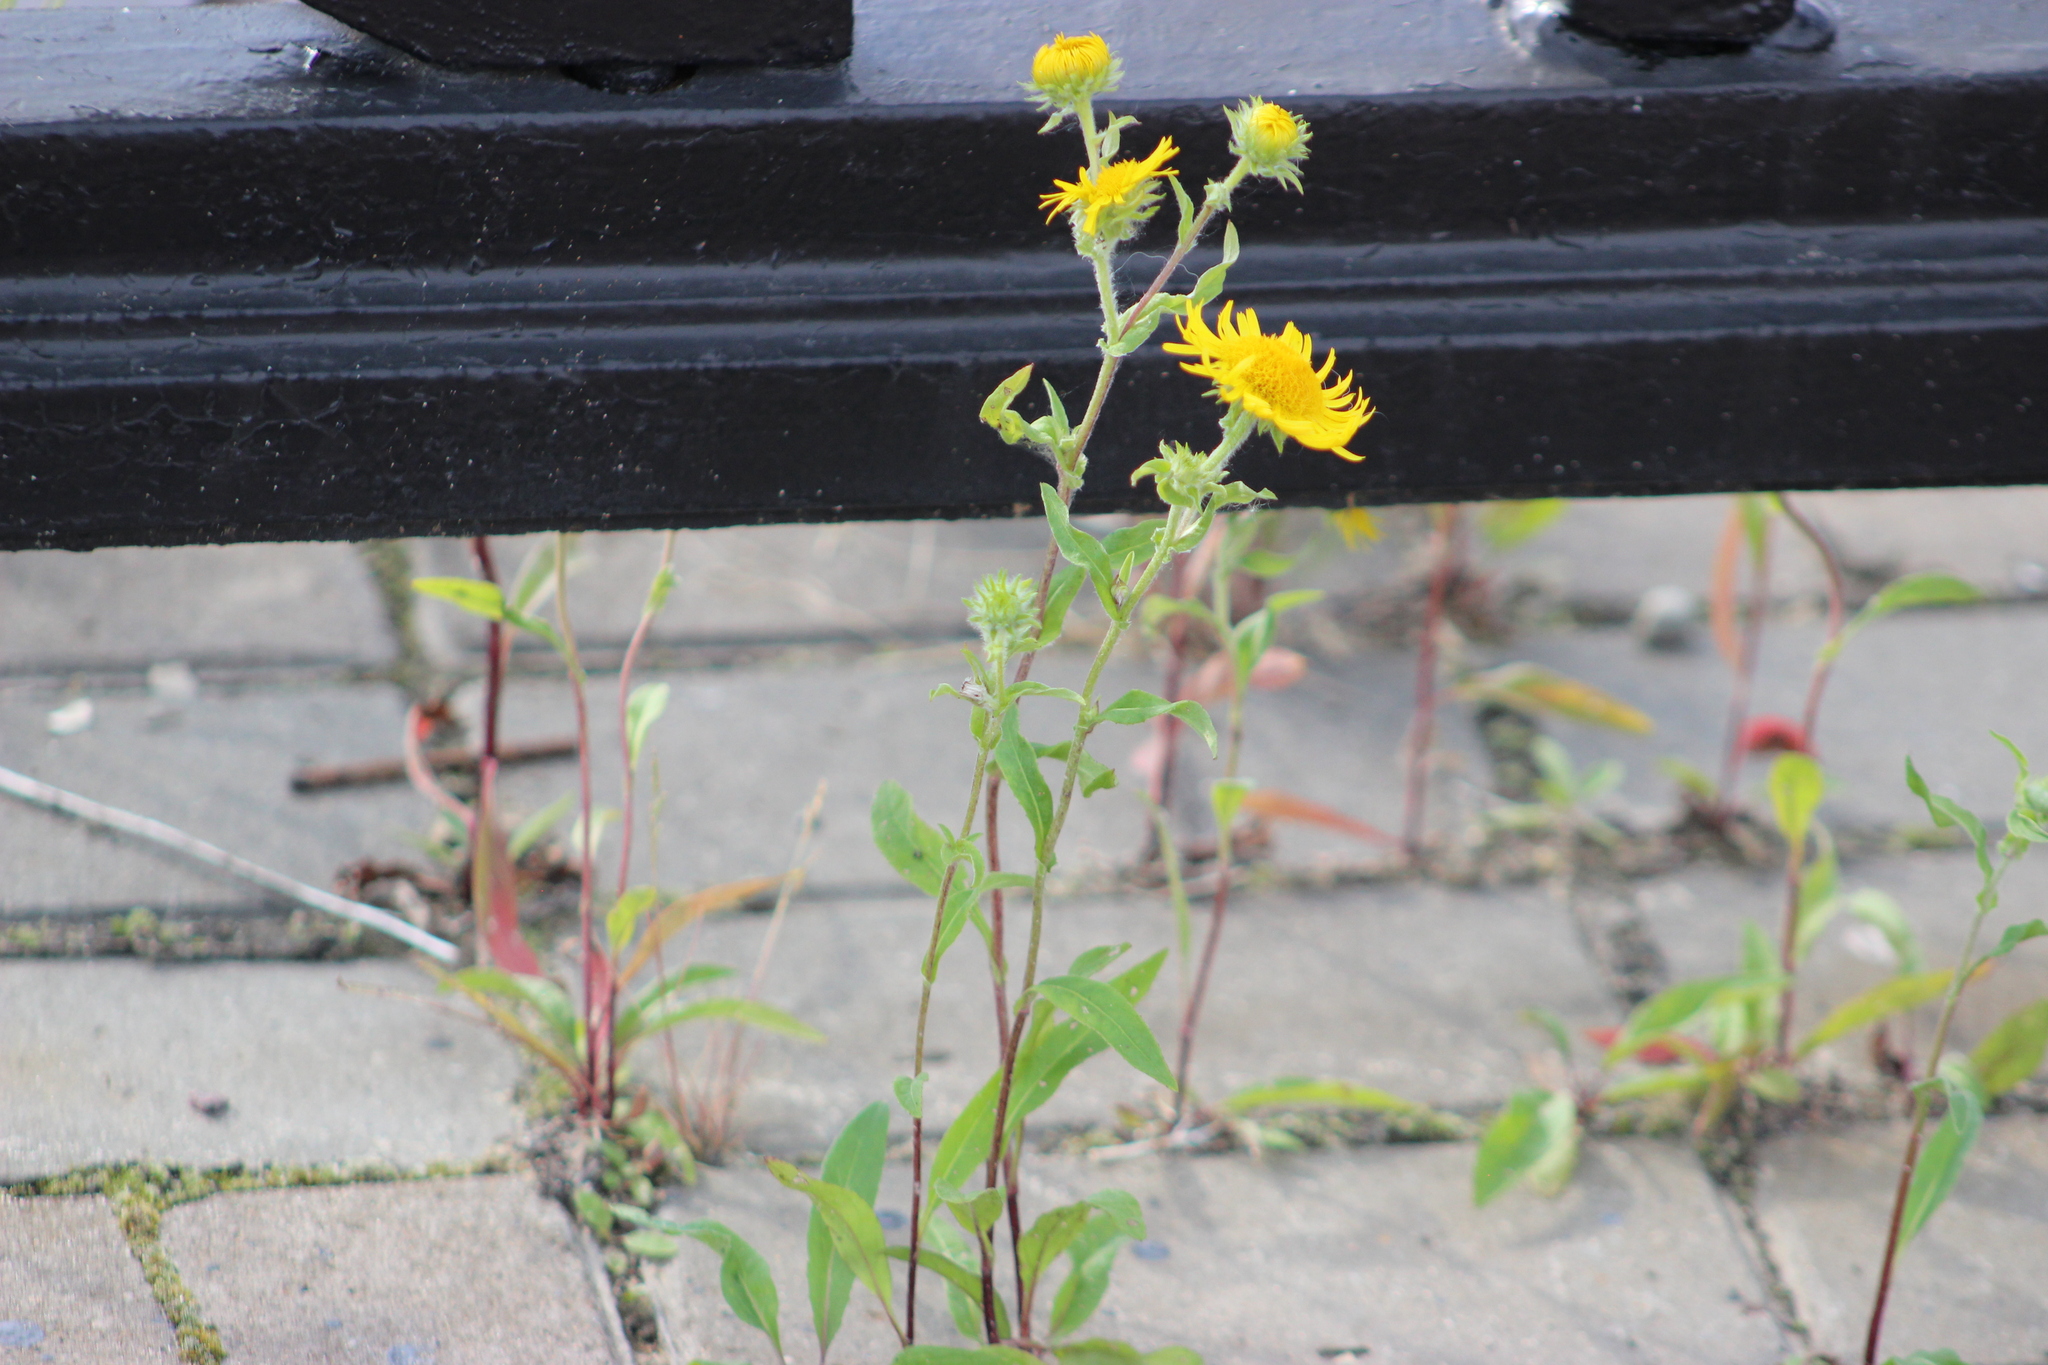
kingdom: Plantae
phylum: Tracheophyta
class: Magnoliopsida
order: Asterales
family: Asteraceae
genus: Pentanema
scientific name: Pentanema britannicum
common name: British elecampane
